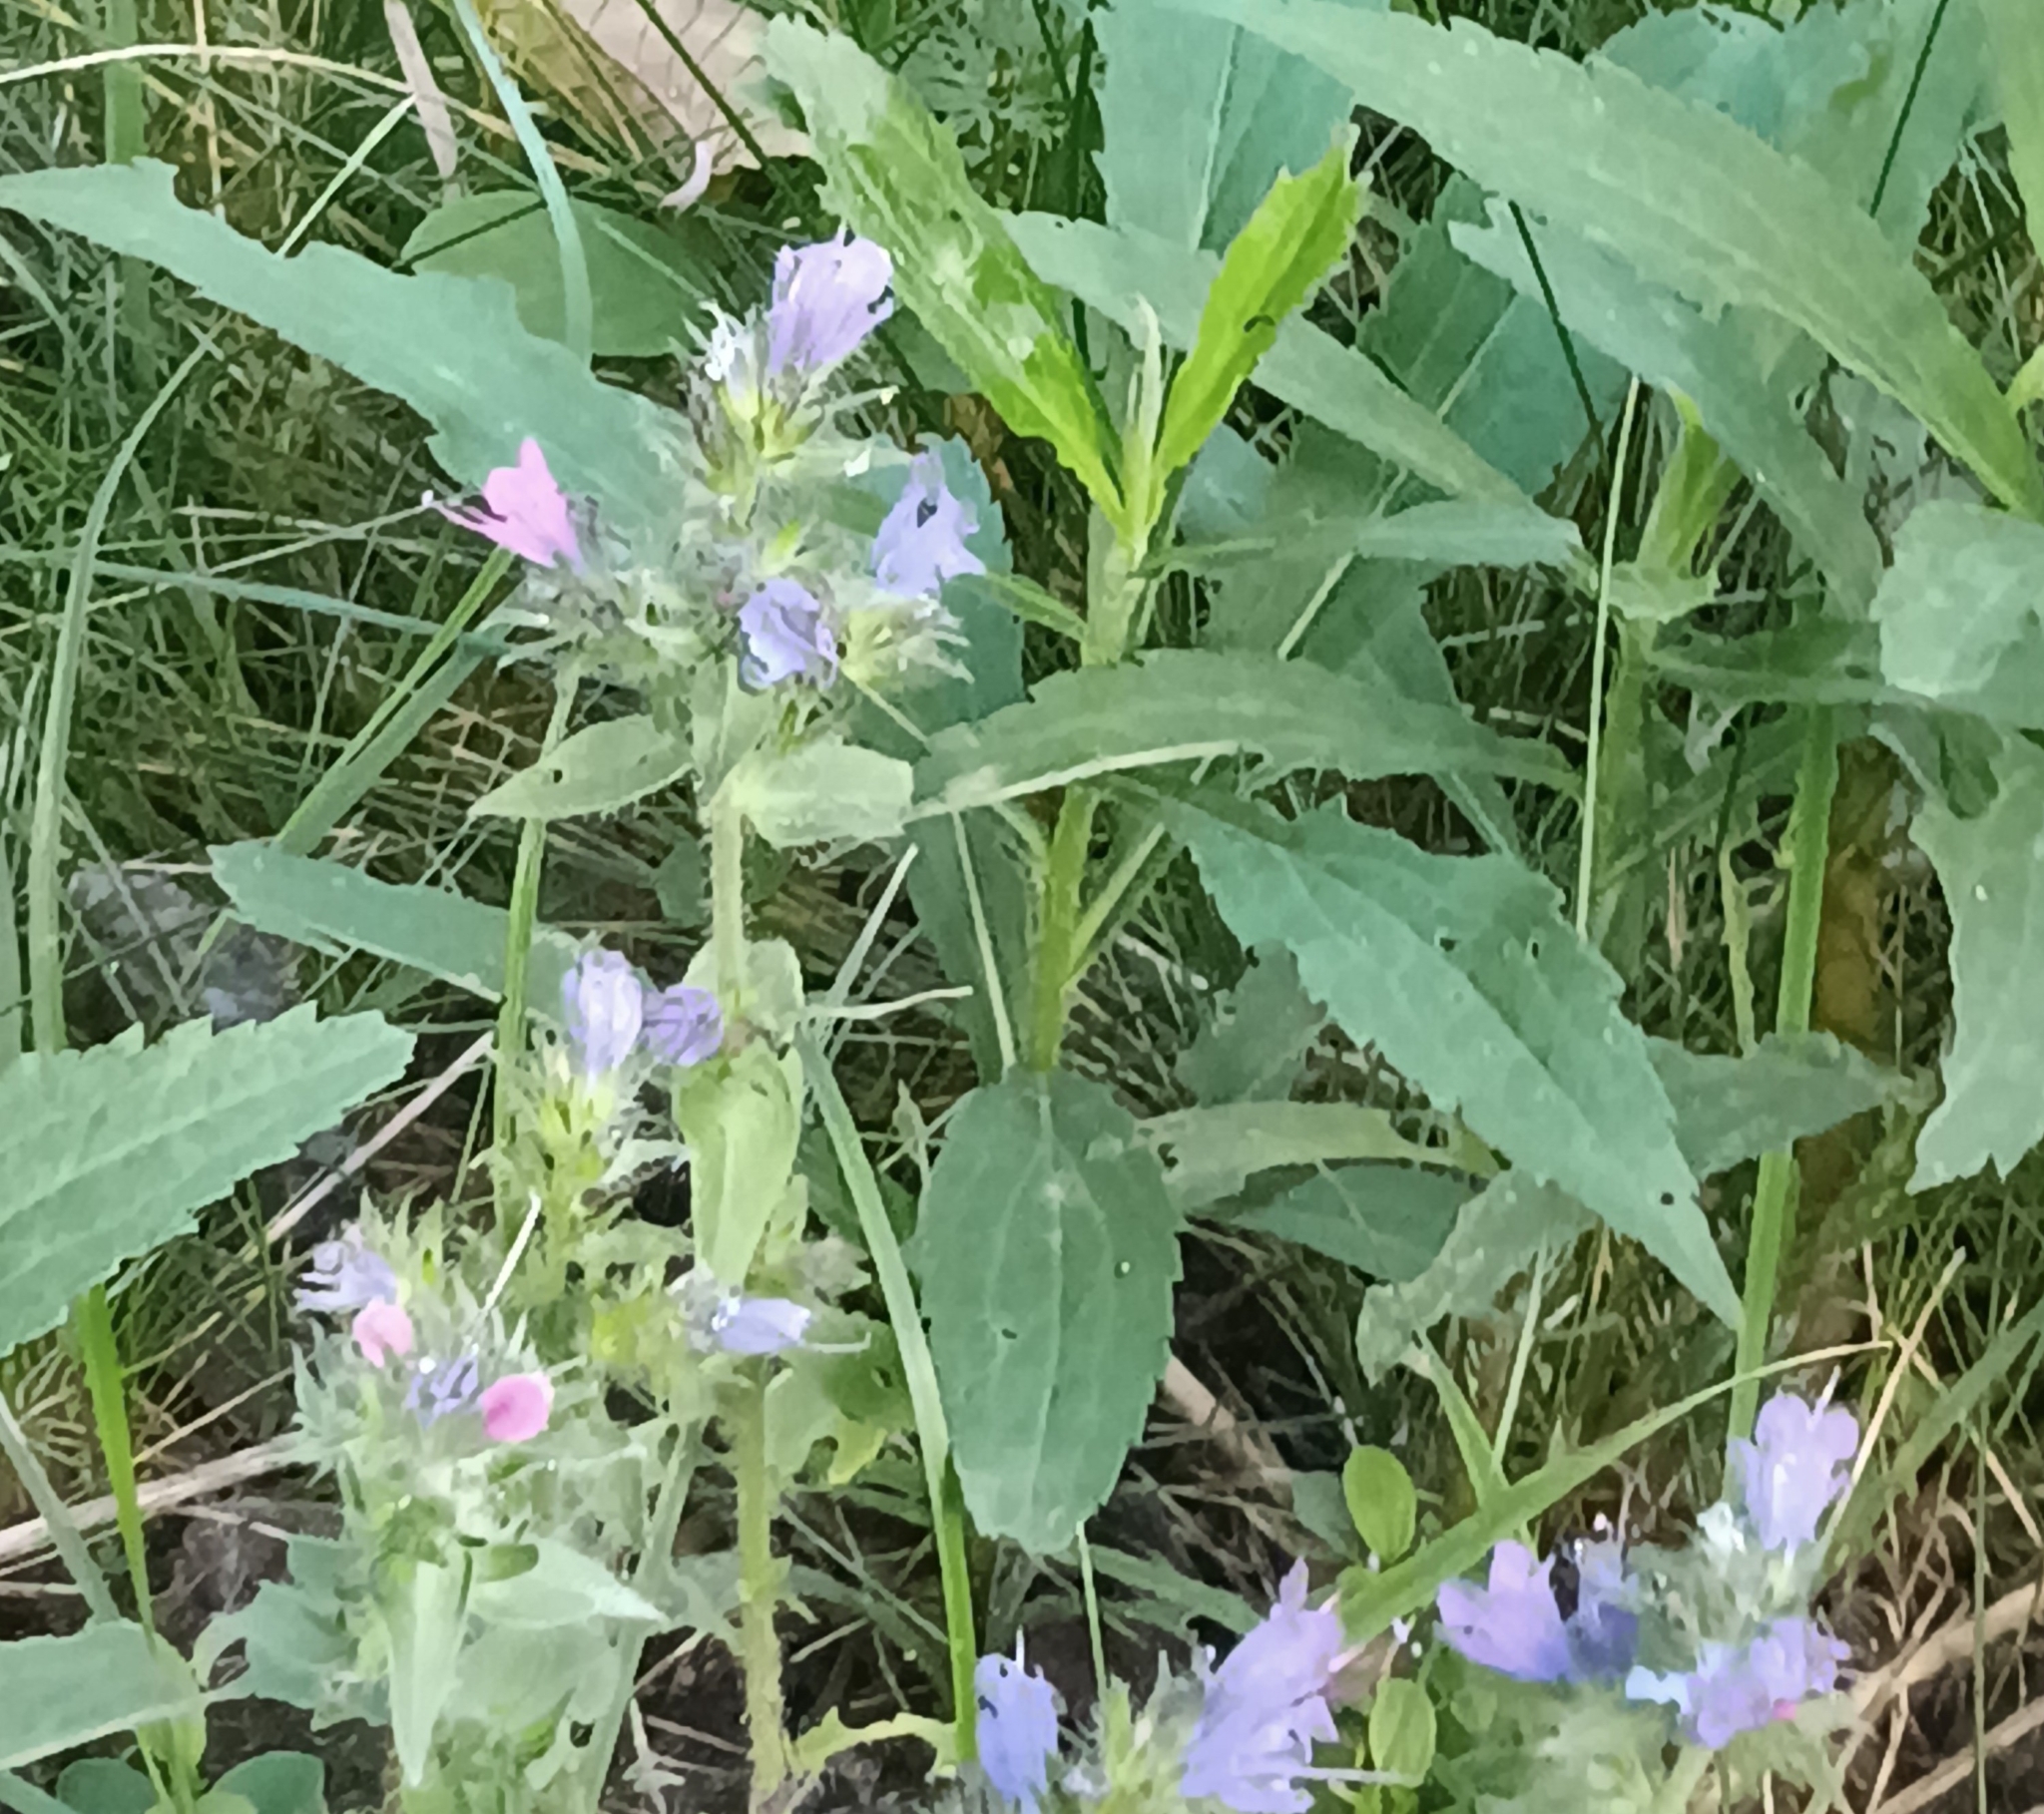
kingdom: Plantae
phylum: Tracheophyta
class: Magnoliopsida
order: Boraginales
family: Boraginaceae
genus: Echium
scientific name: Echium vulgare
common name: Common viper's bugloss
